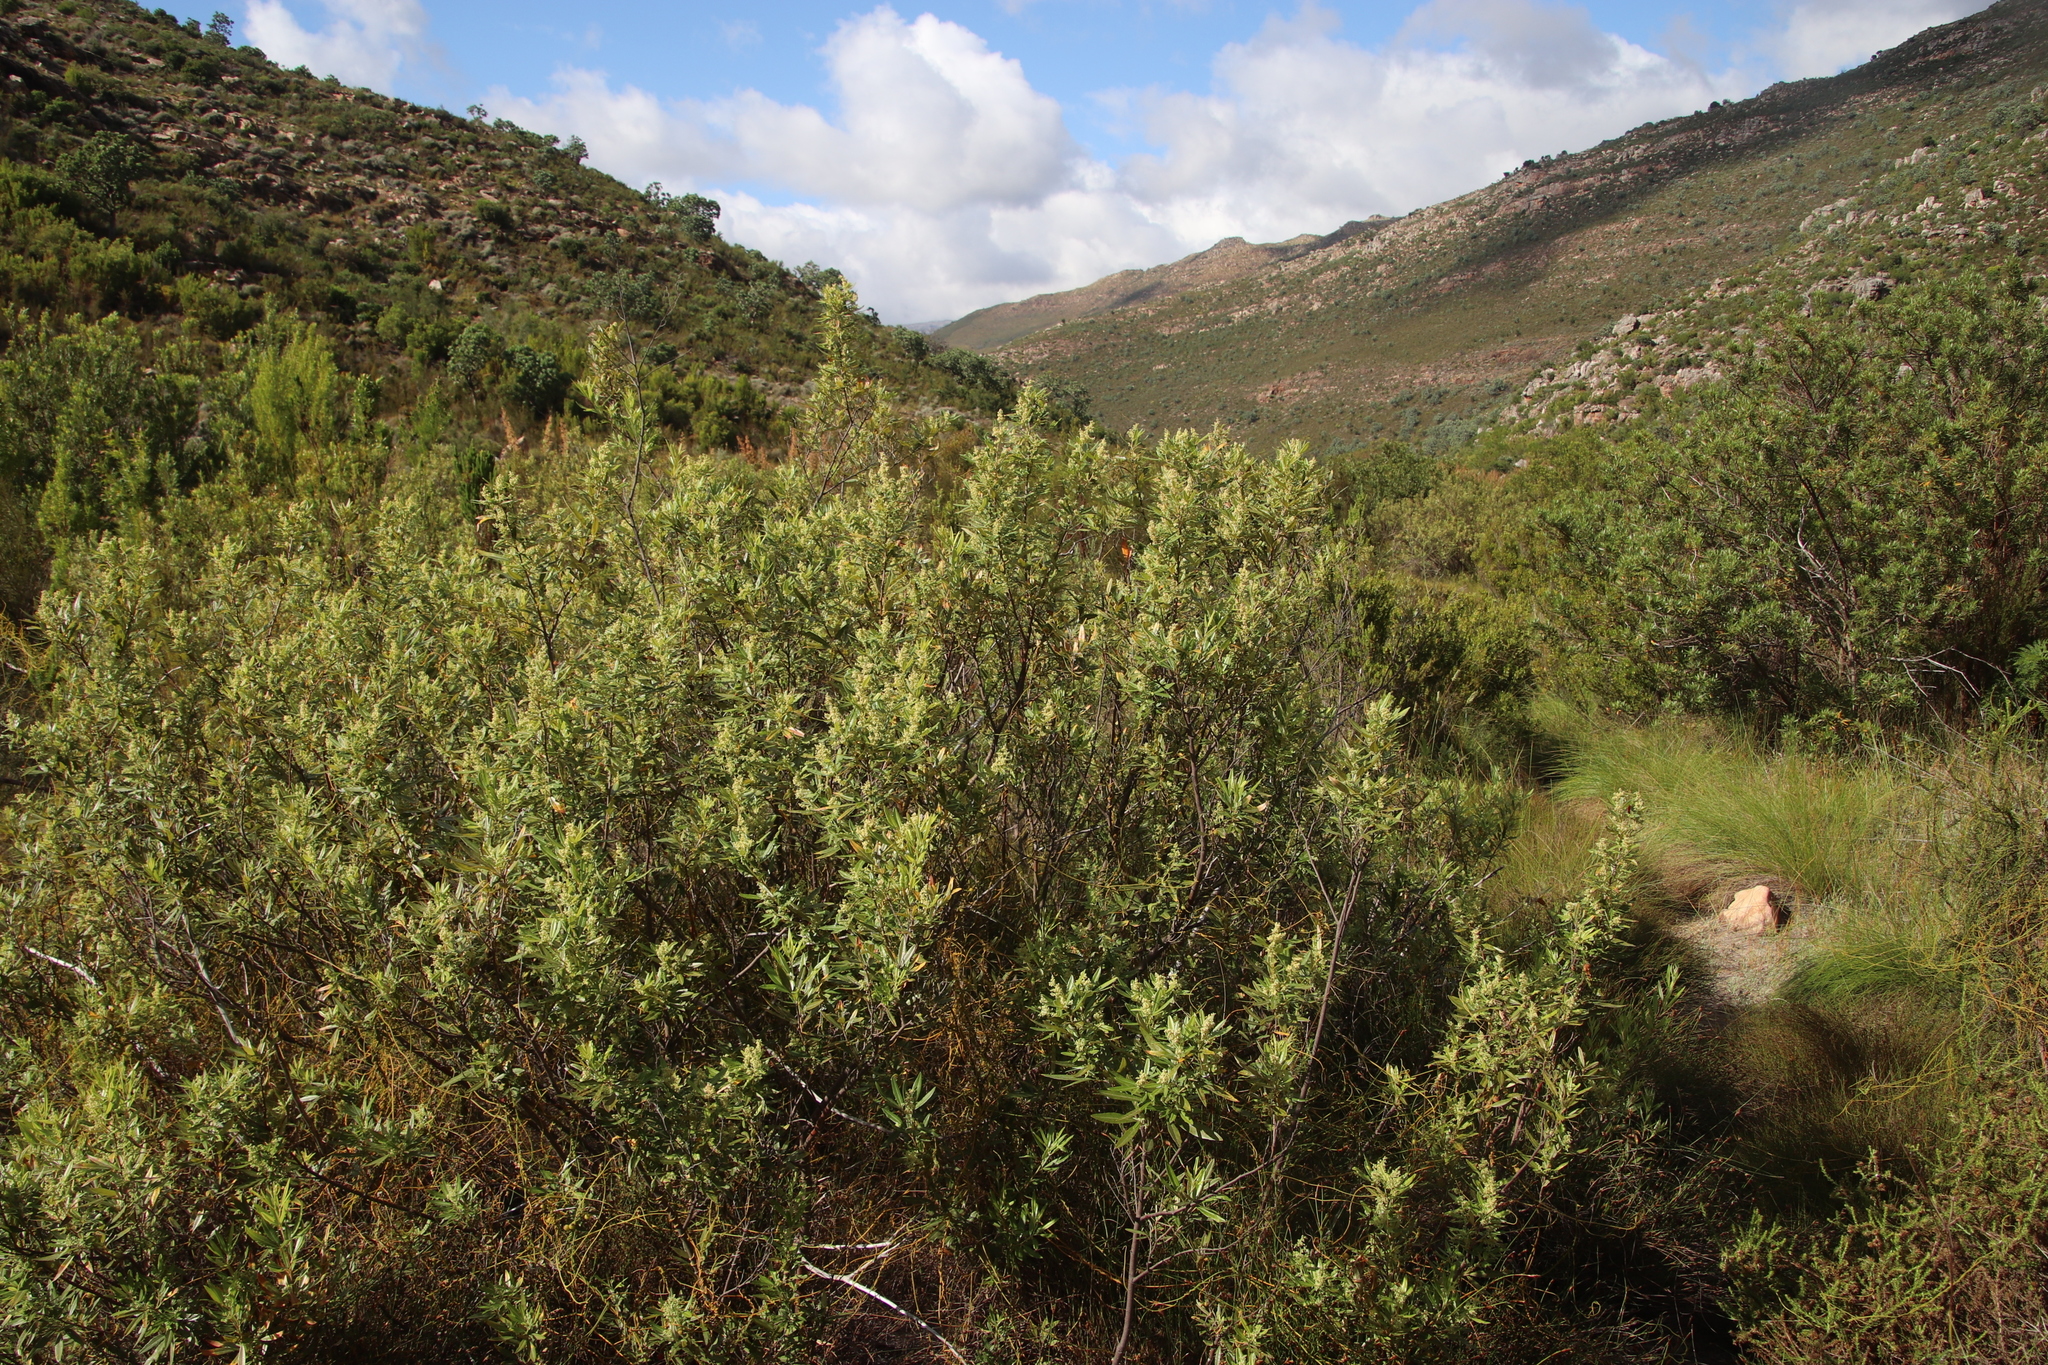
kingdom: Plantae
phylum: Tracheophyta
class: Magnoliopsida
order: Sapindales
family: Anacardiaceae
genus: Searsia
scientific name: Searsia angustifolia
